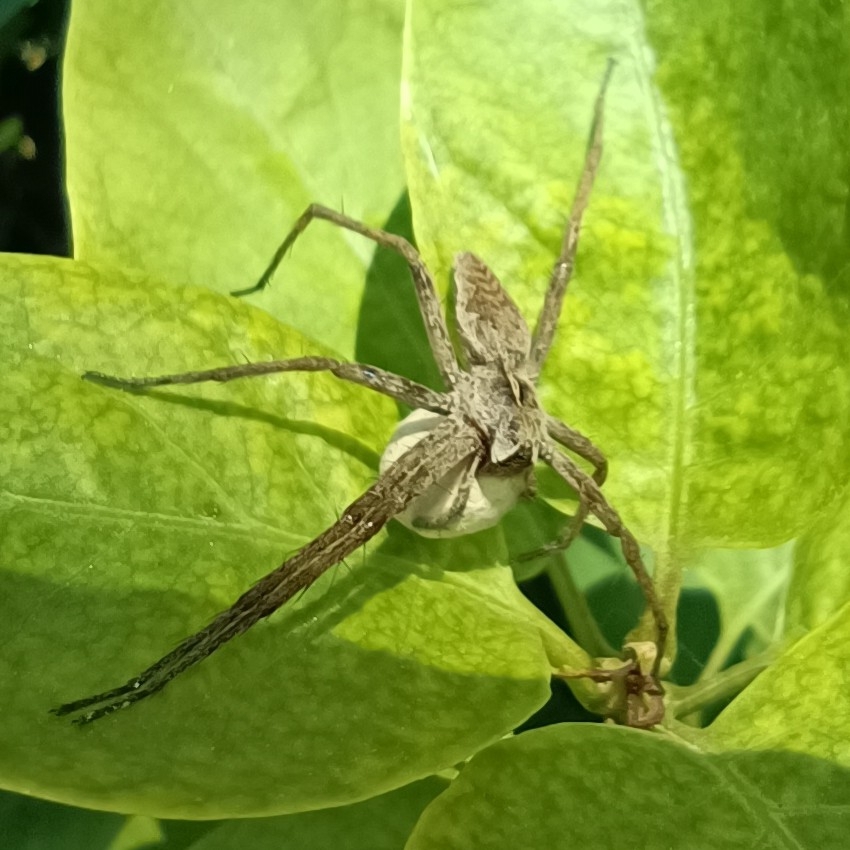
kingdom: Animalia
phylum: Arthropoda
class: Arachnida
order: Araneae
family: Pisauridae
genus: Pisaura
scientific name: Pisaura
